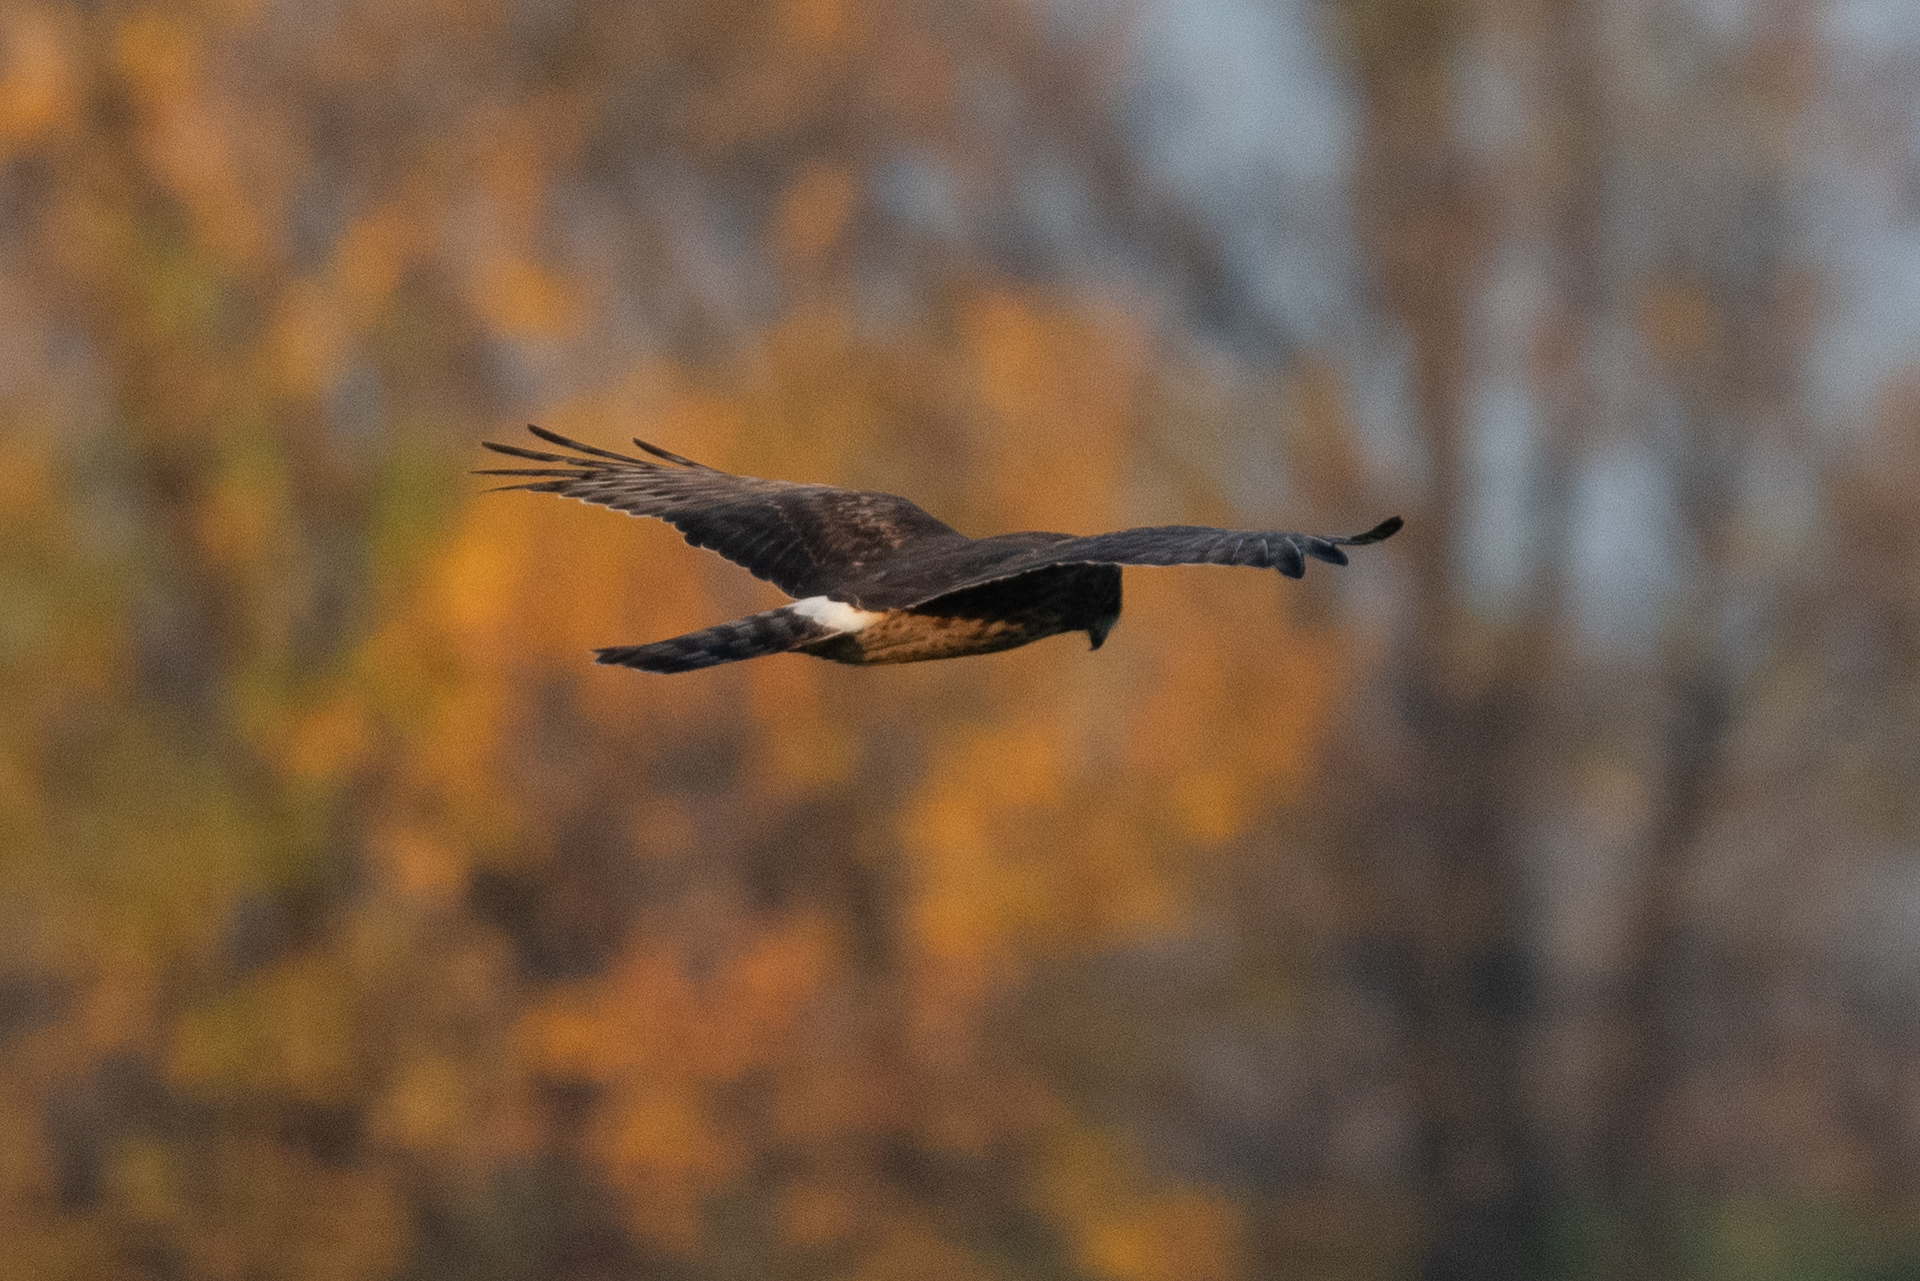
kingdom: Animalia
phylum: Chordata
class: Aves
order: Accipitriformes
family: Accipitridae
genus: Circus
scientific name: Circus cyaneus
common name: Hen harrier
